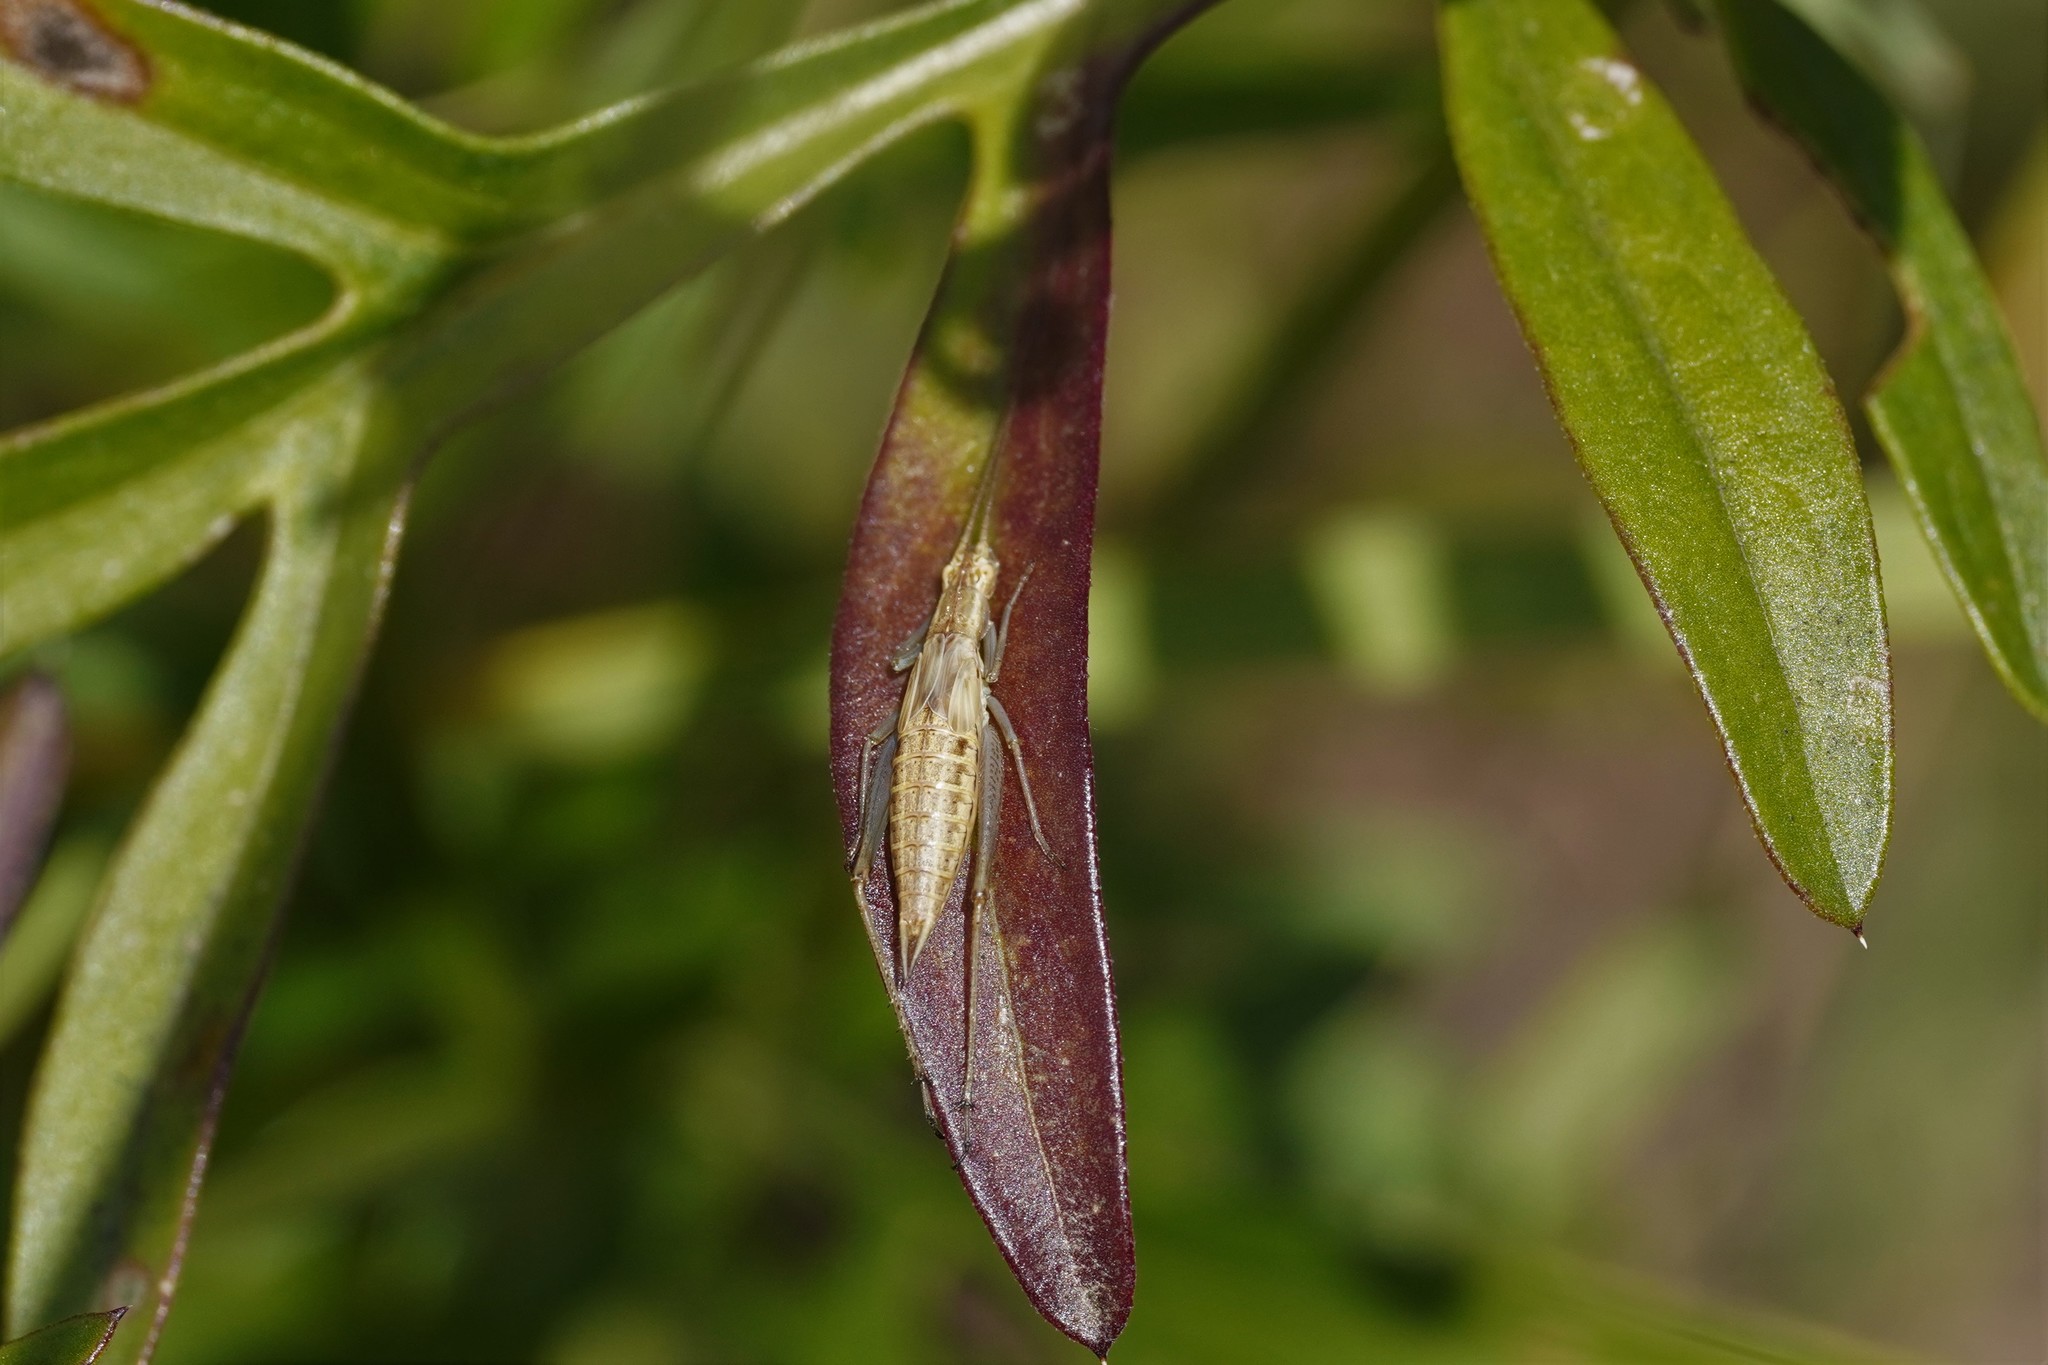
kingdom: Animalia
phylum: Arthropoda
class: Insecta
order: Orthoptera
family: Gryllidae
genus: Oecanthus
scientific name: Oecanthus pellucens
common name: Tree-cricket
